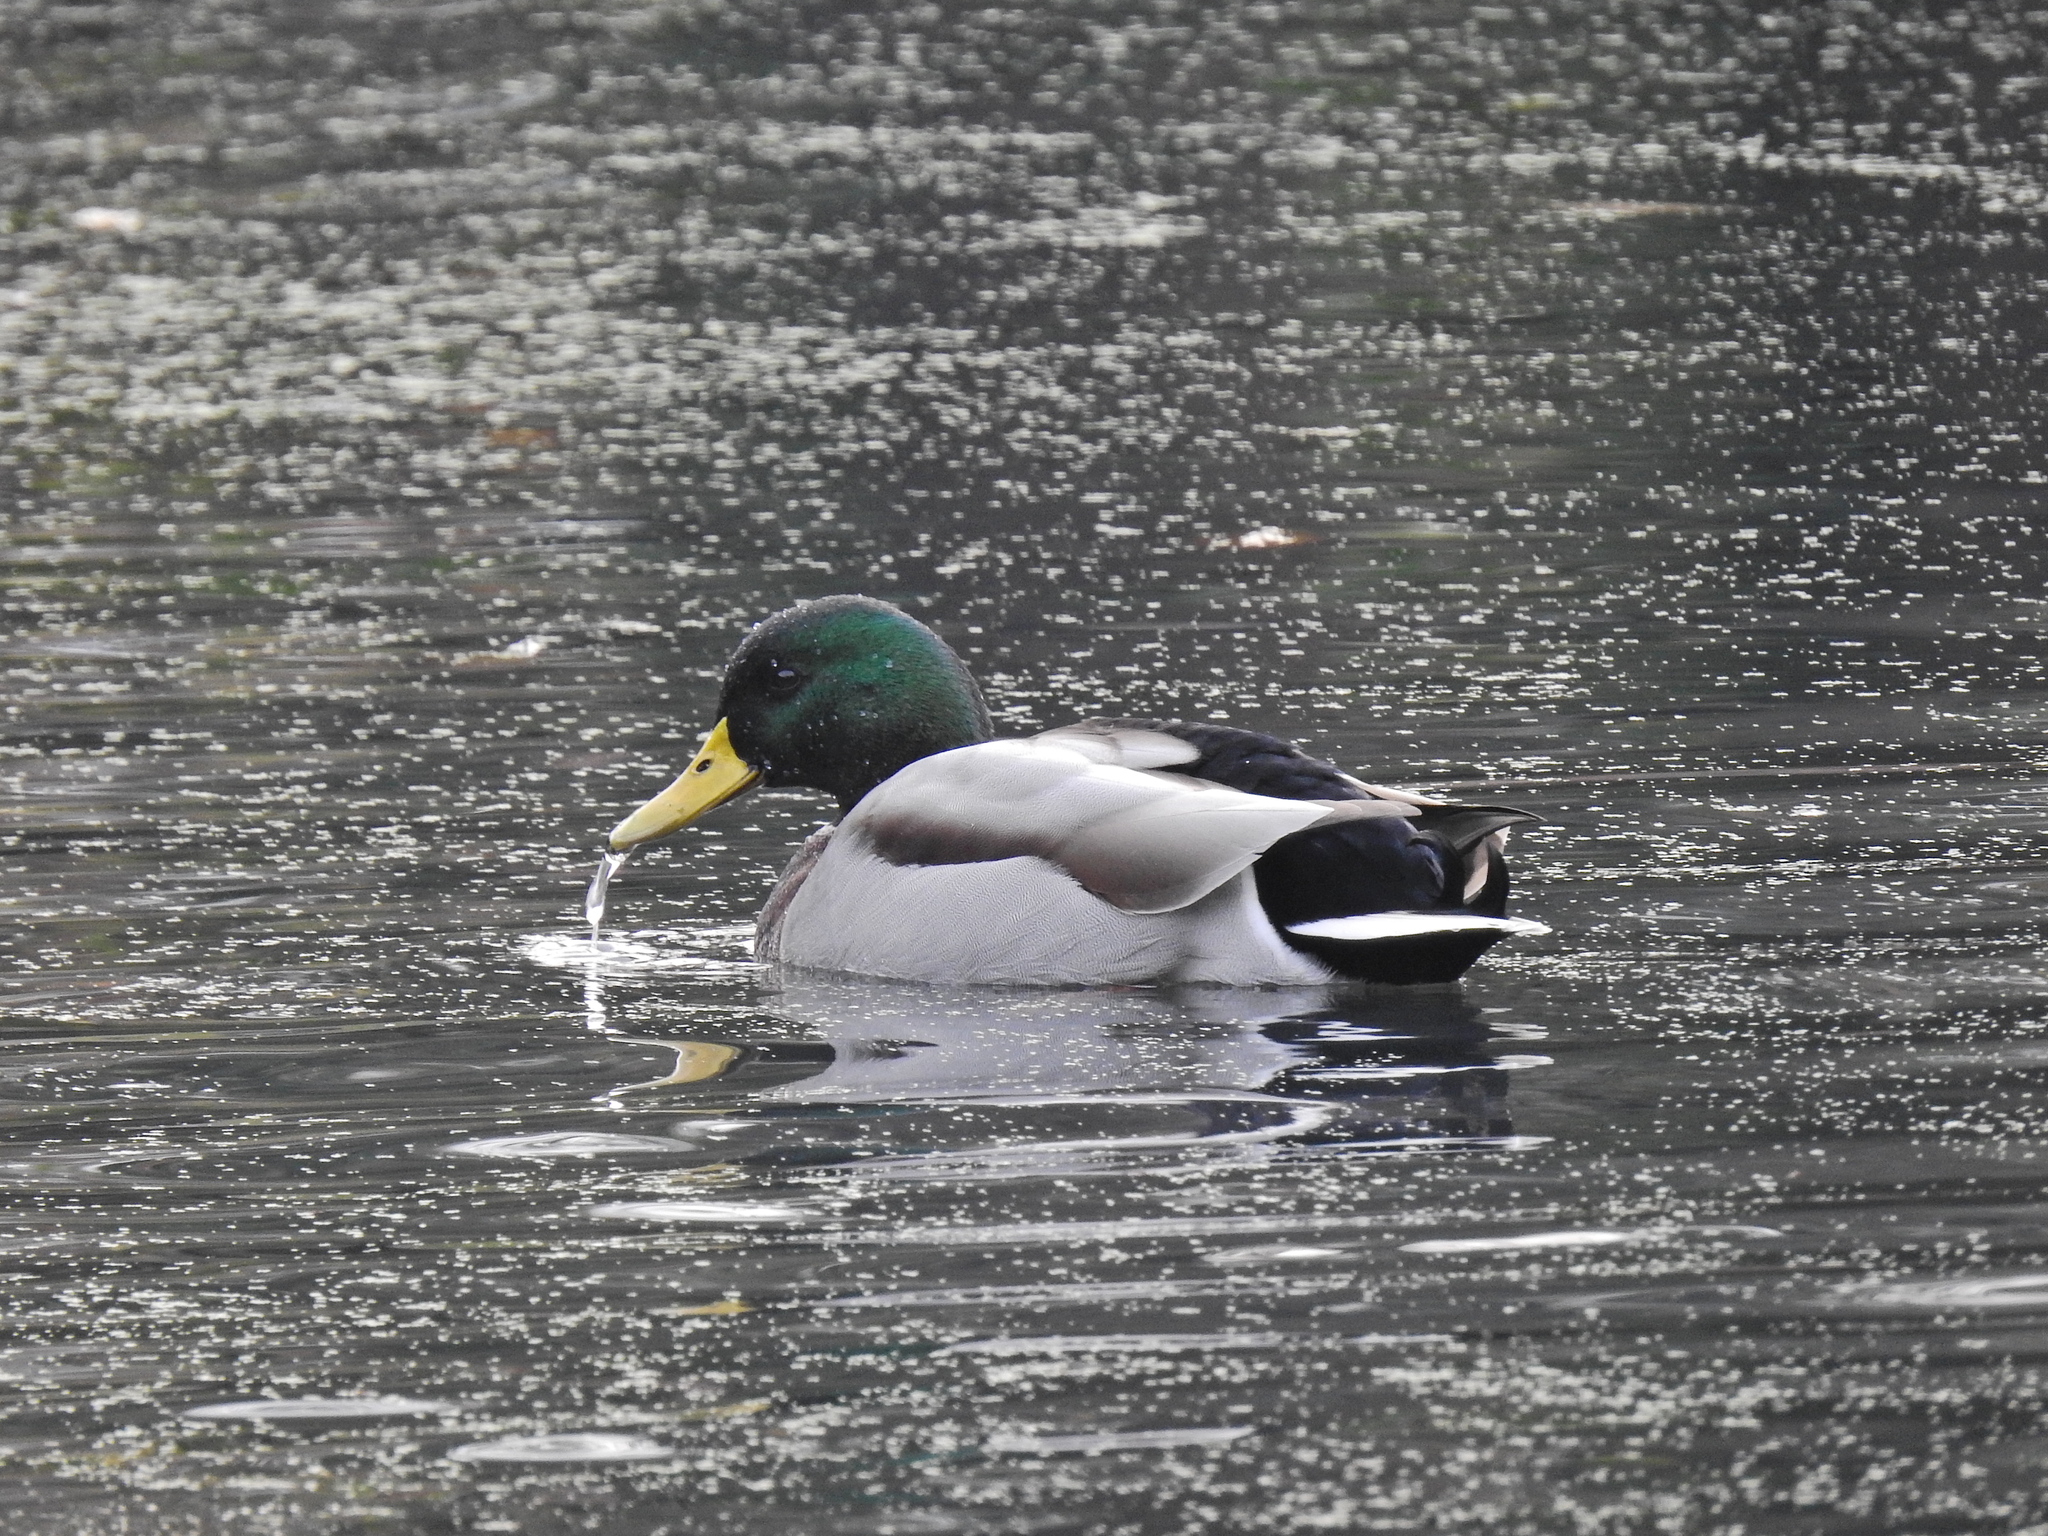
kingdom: Animalia
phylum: Chordata
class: Aves
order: Anseriformes
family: Anatidae
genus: Anas
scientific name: Anas platyrhynchos
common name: Mallard
